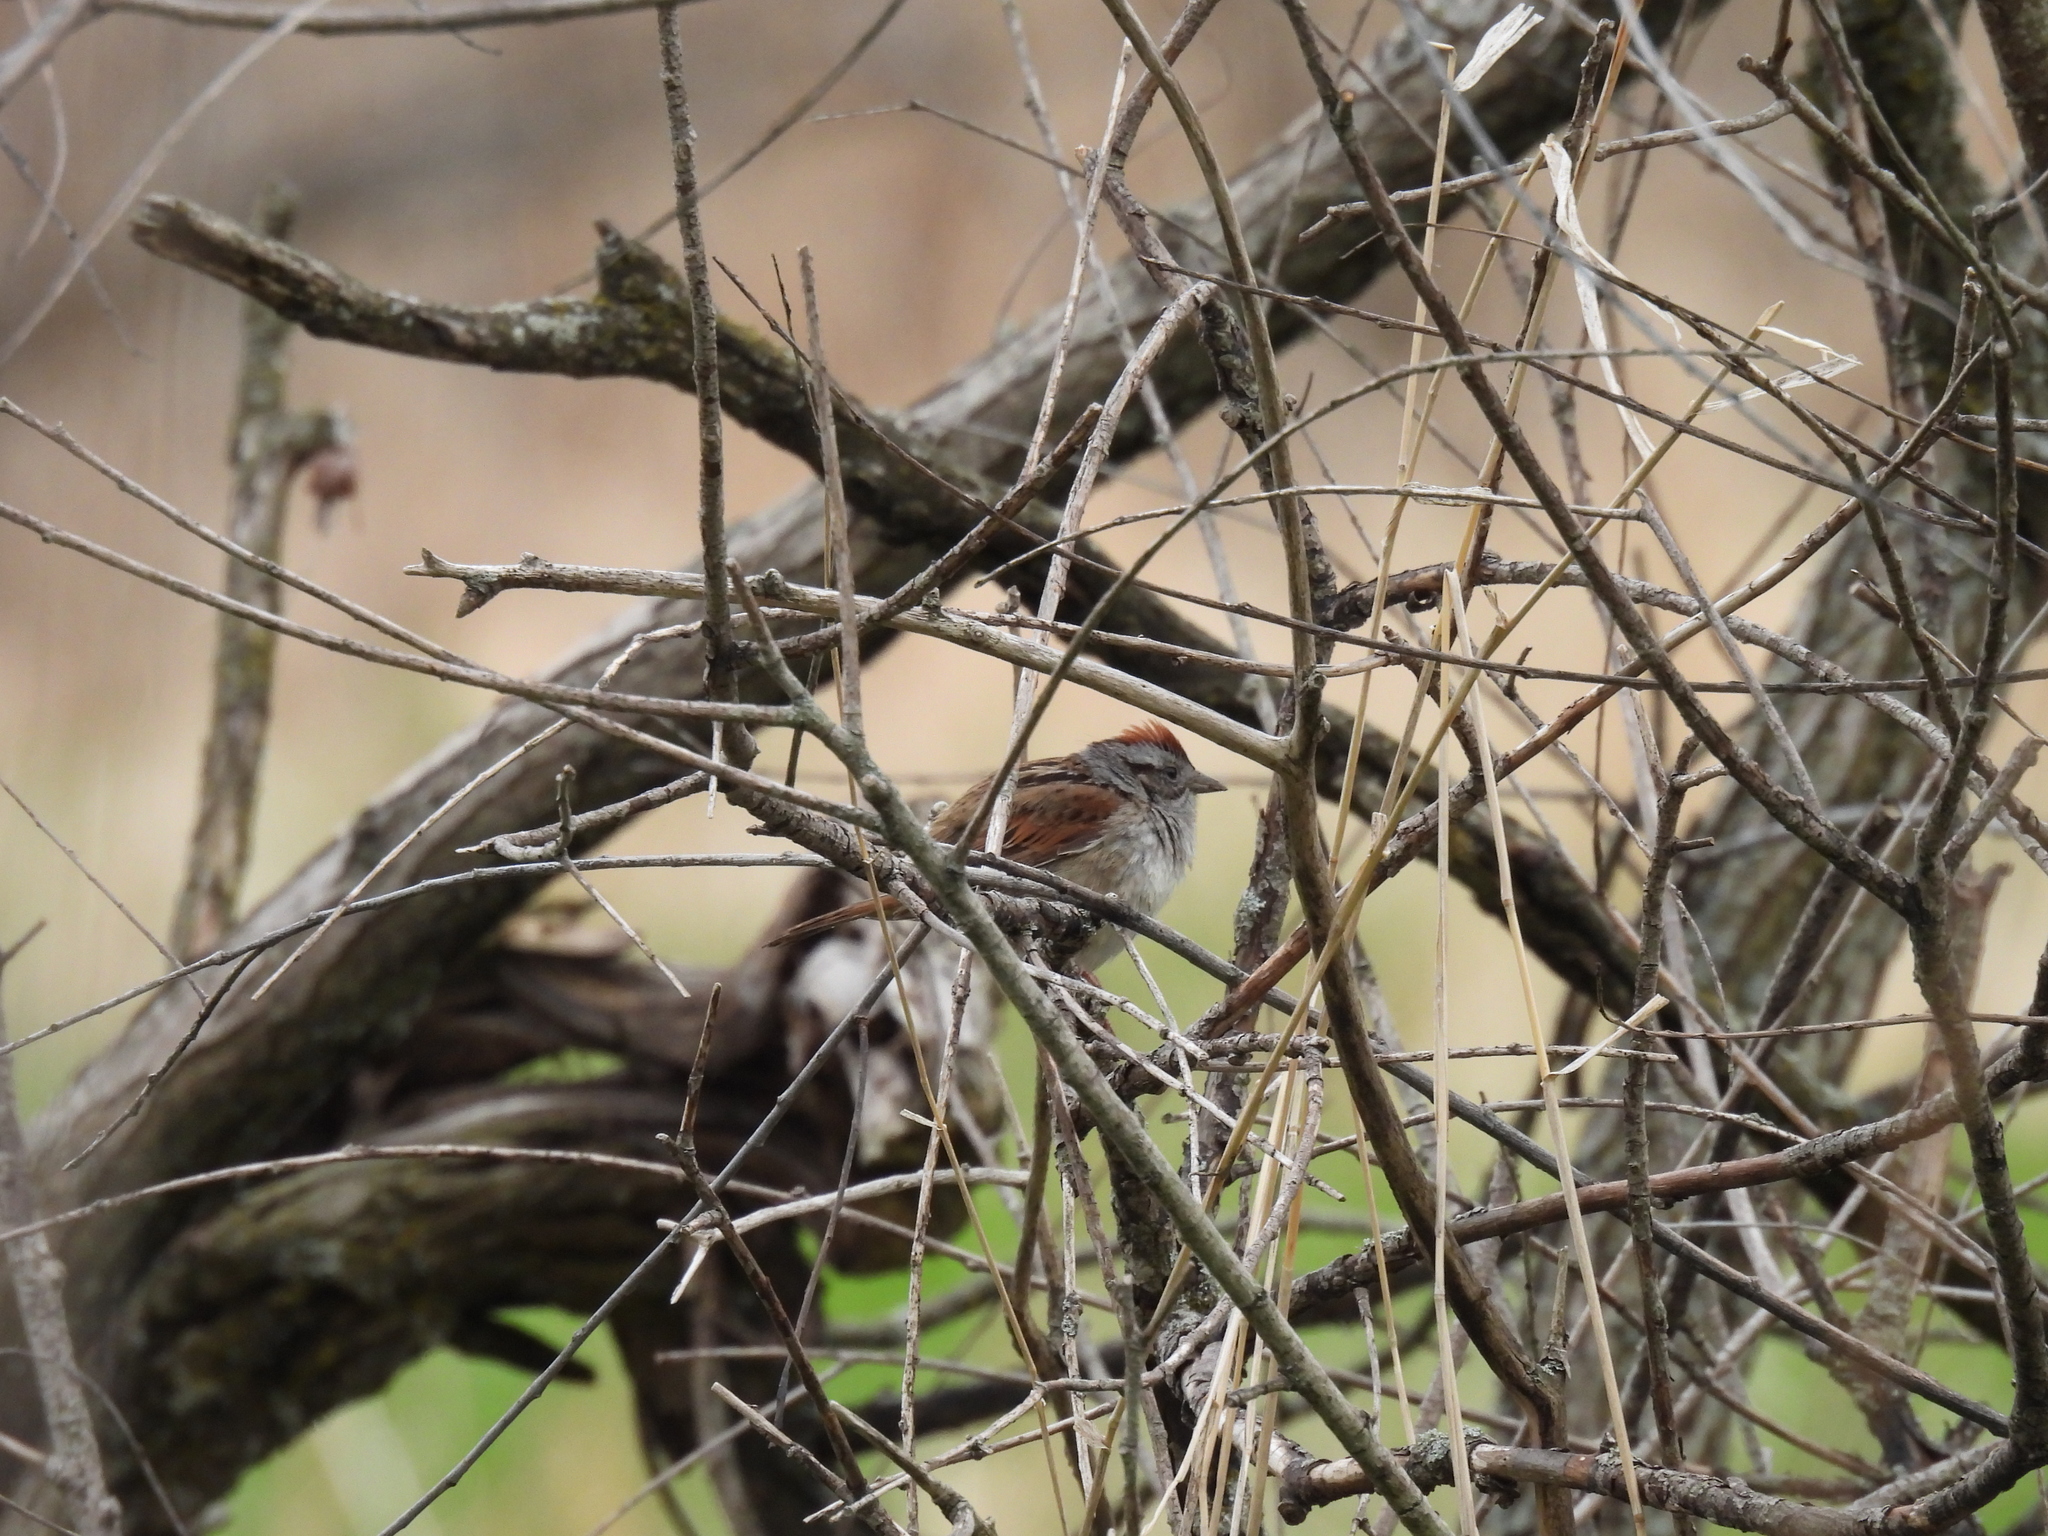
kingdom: Animalia
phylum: Chordata
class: Aves
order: Passeriformes
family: Passerellidae
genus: Melospiza
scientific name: Melospiza georgiana
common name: Swamp sparrow
